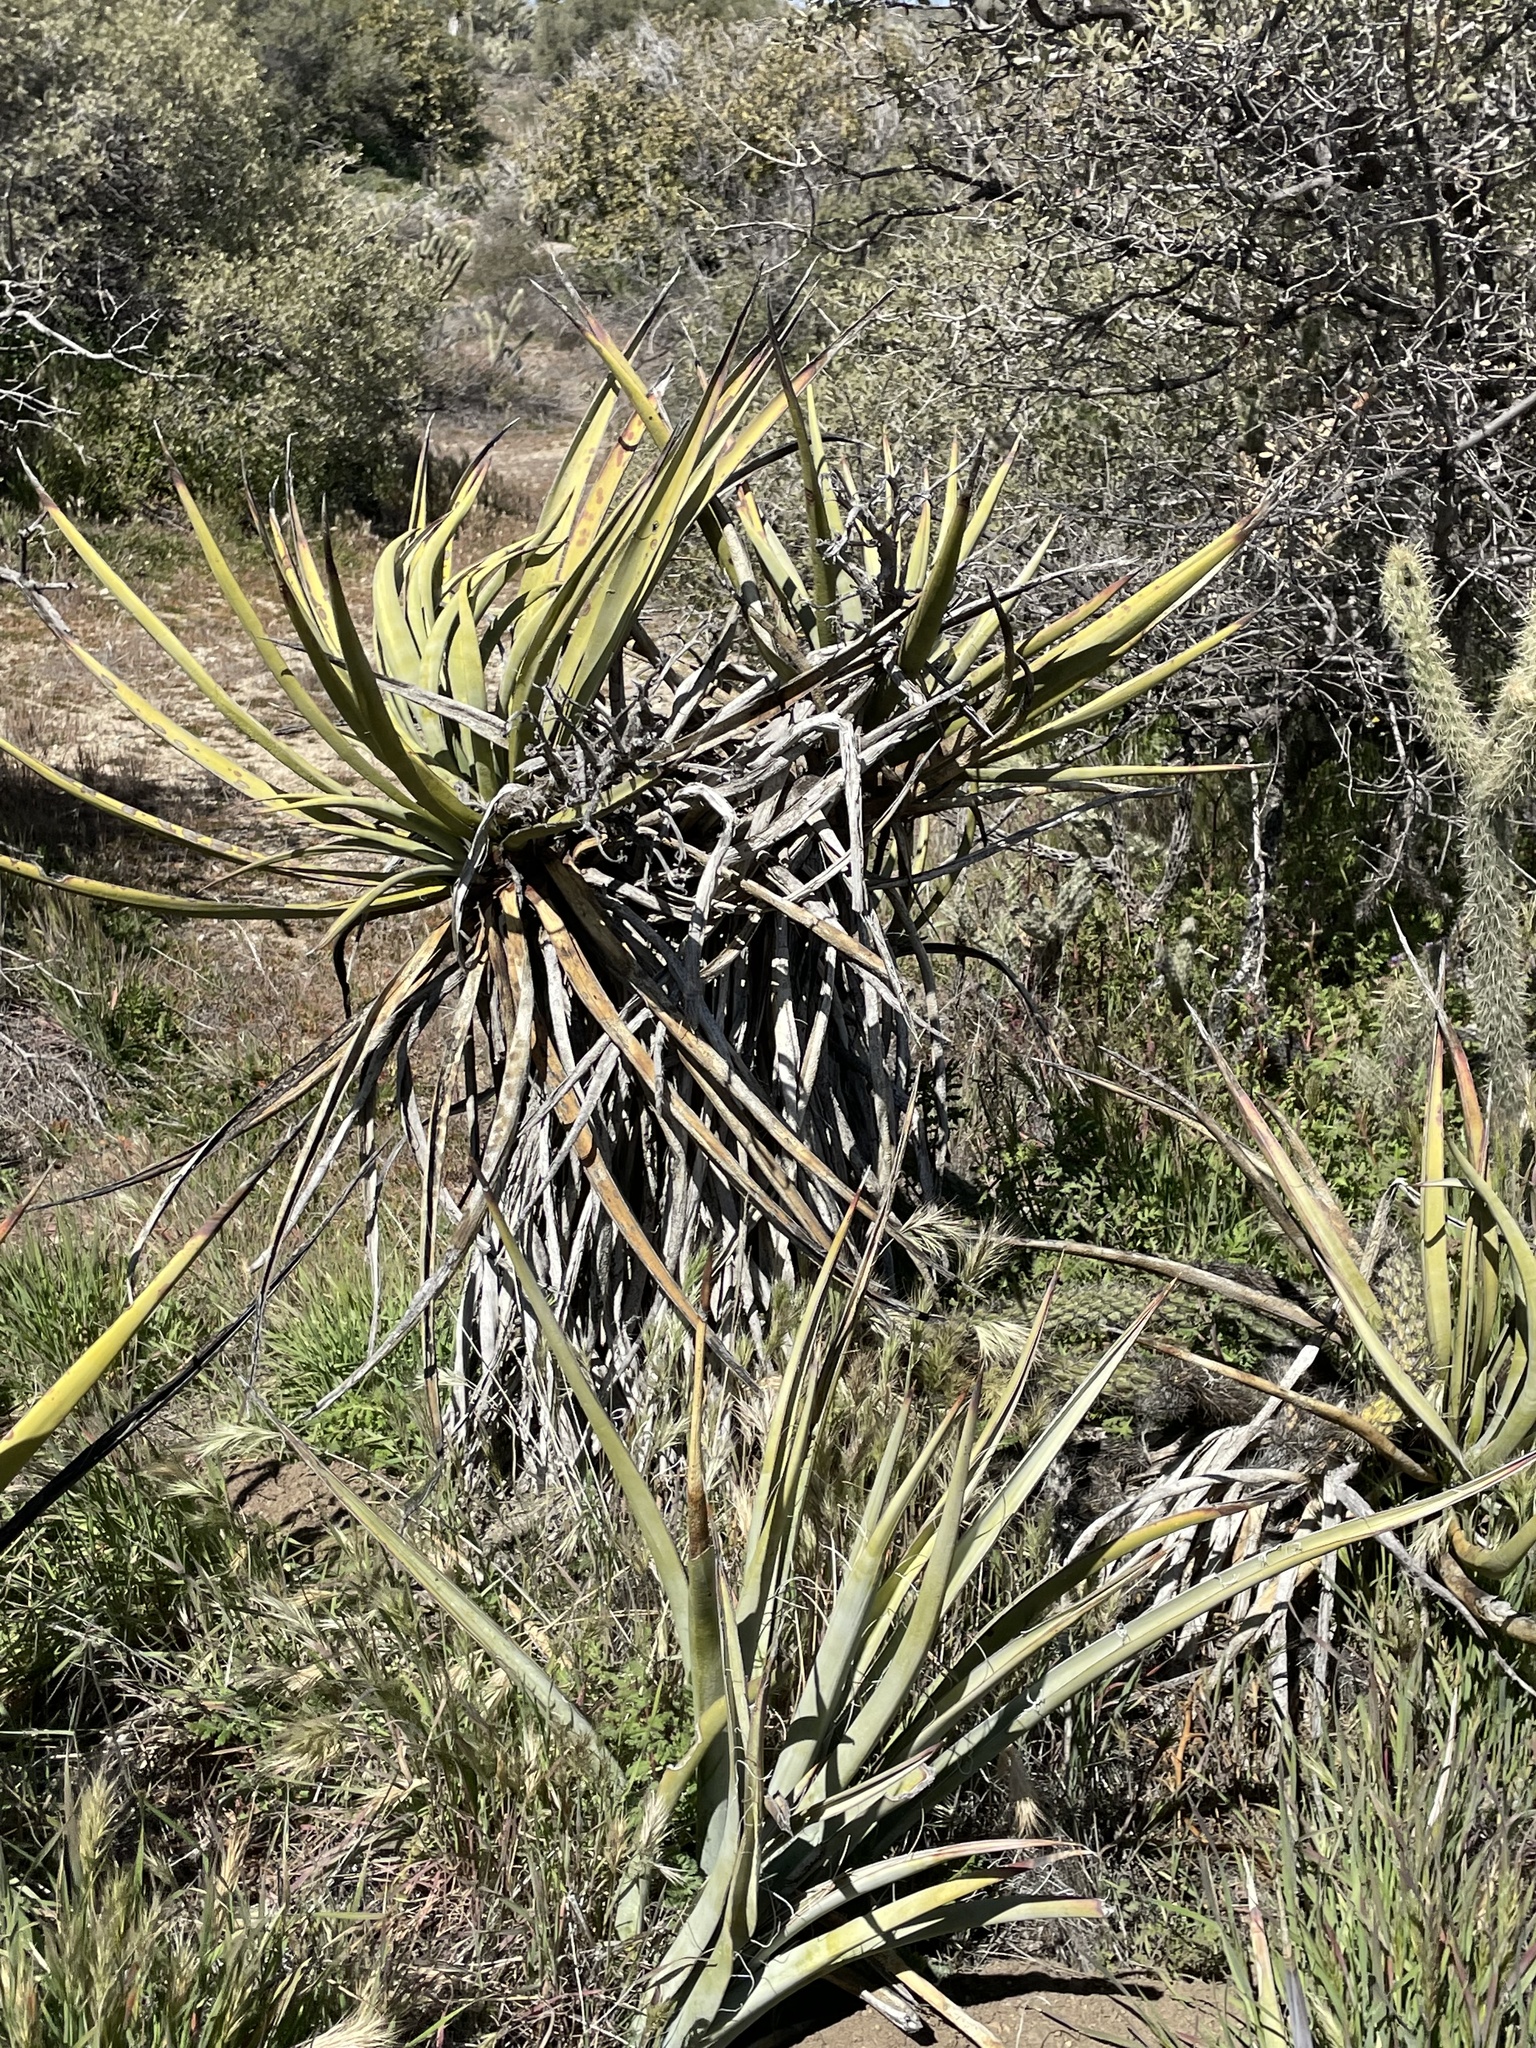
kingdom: Plantae
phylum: Tracheophyta
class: Liliopsida
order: Asparagales
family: Asparagaceae
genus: Yucca
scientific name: Yucca schidigera
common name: Mojave yucca
